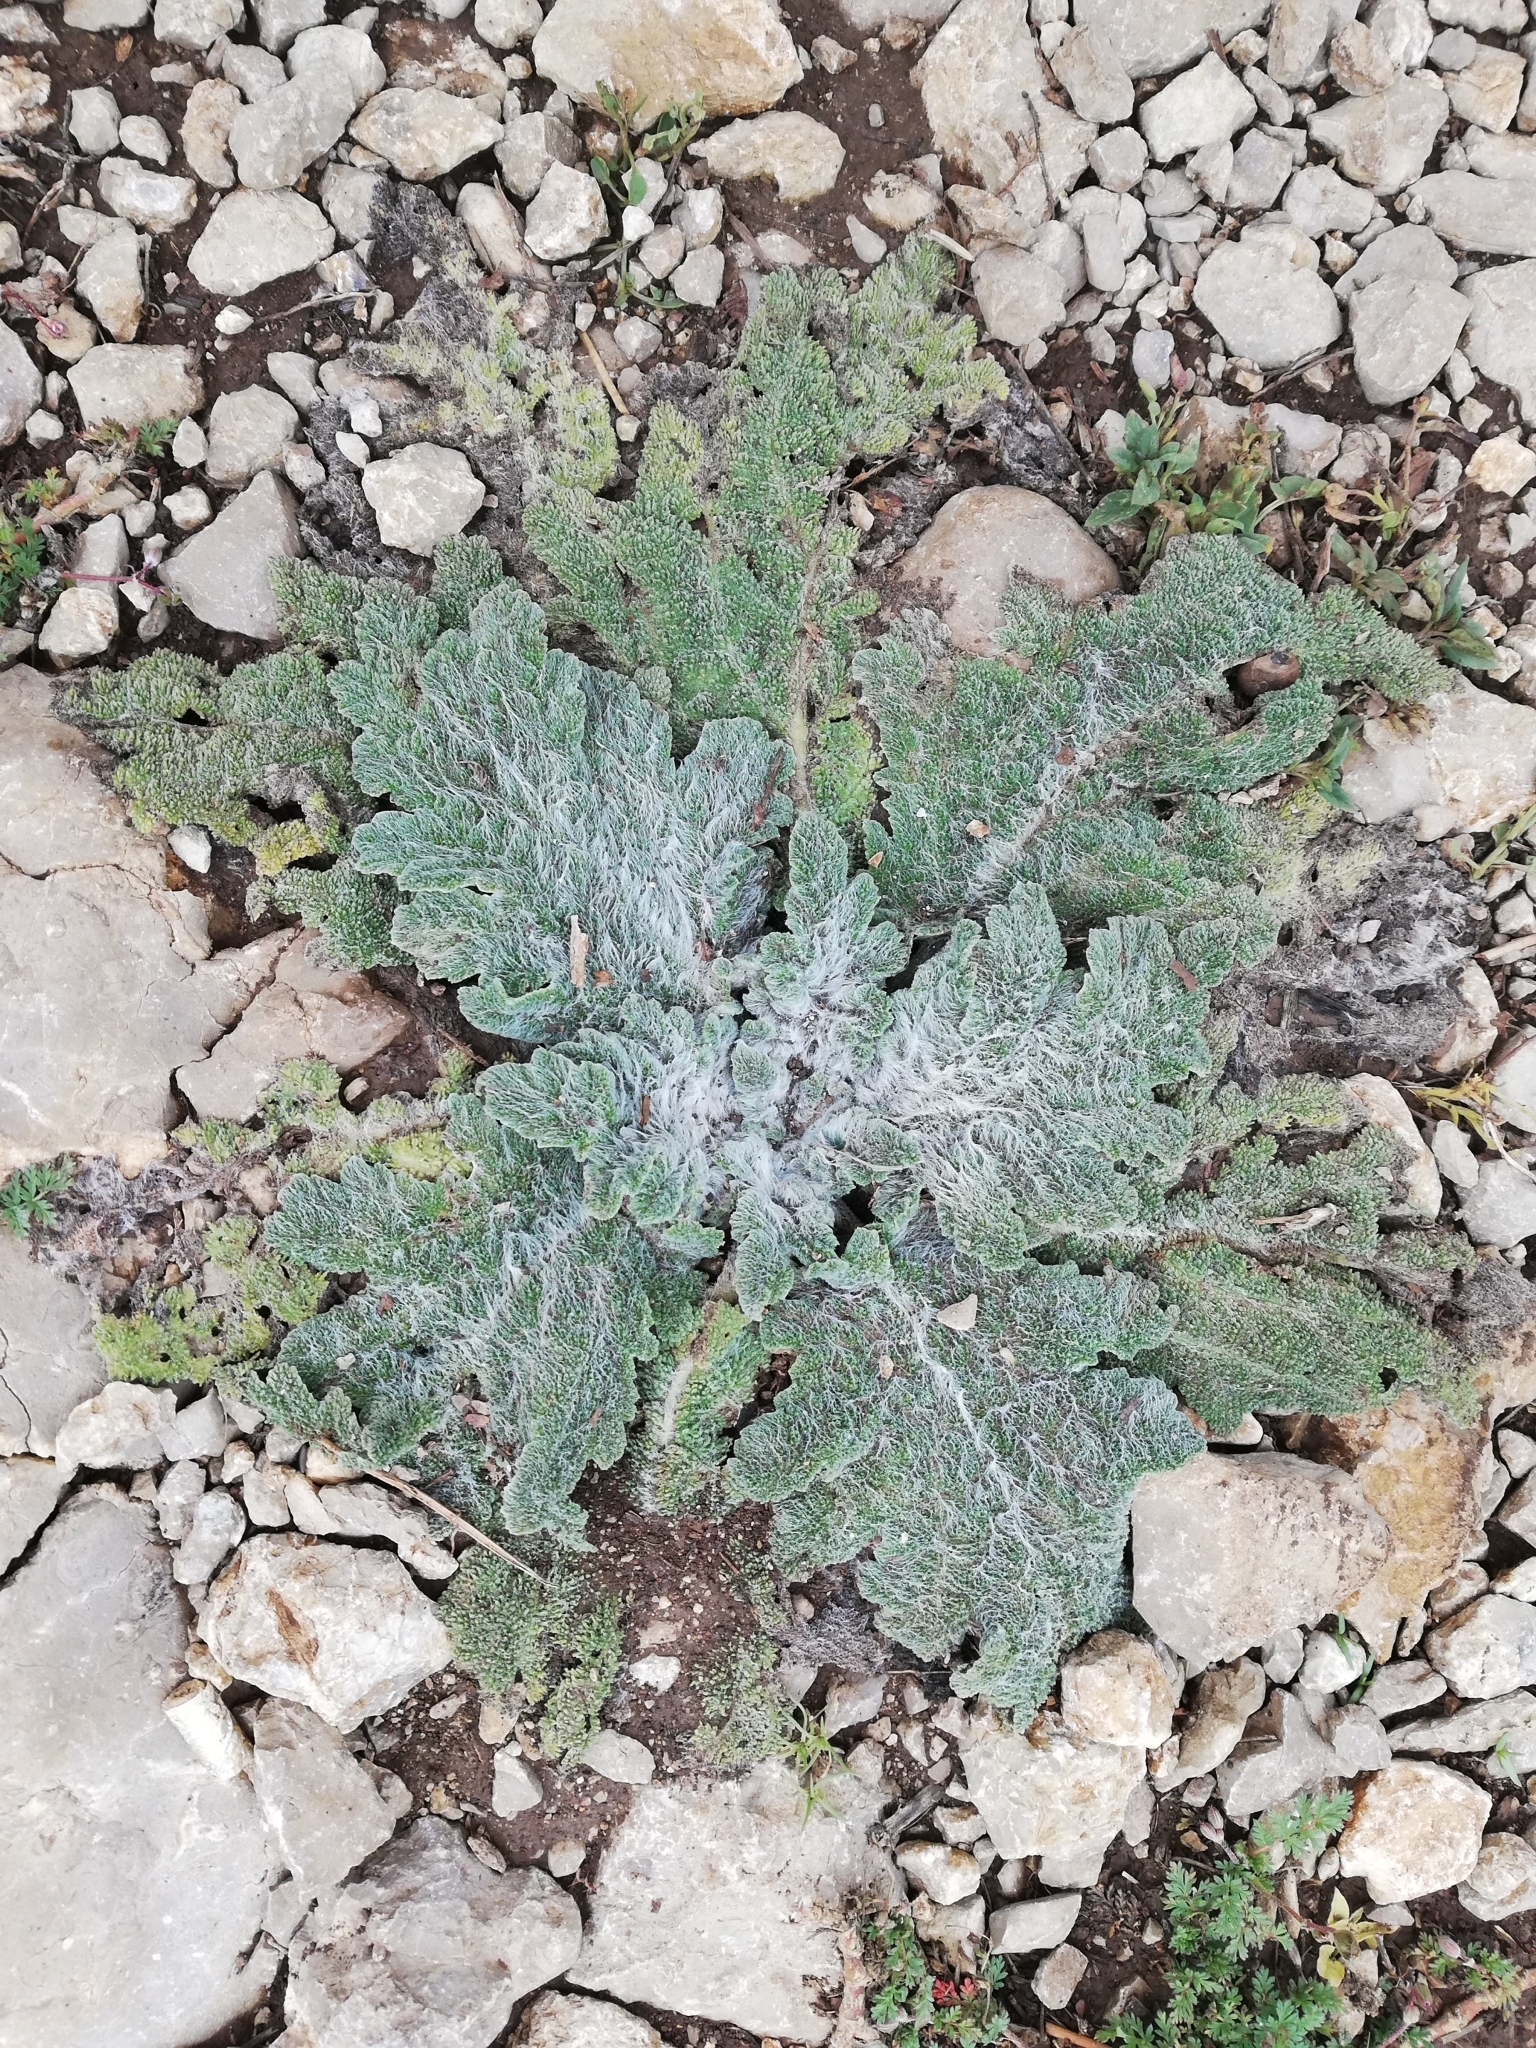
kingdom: Plantae
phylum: Tracheophyta
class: Magnoliopsida
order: Lamiales
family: Lamiaceae
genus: Salvia
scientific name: Salvia aethiopis
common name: Mediterranean sage
